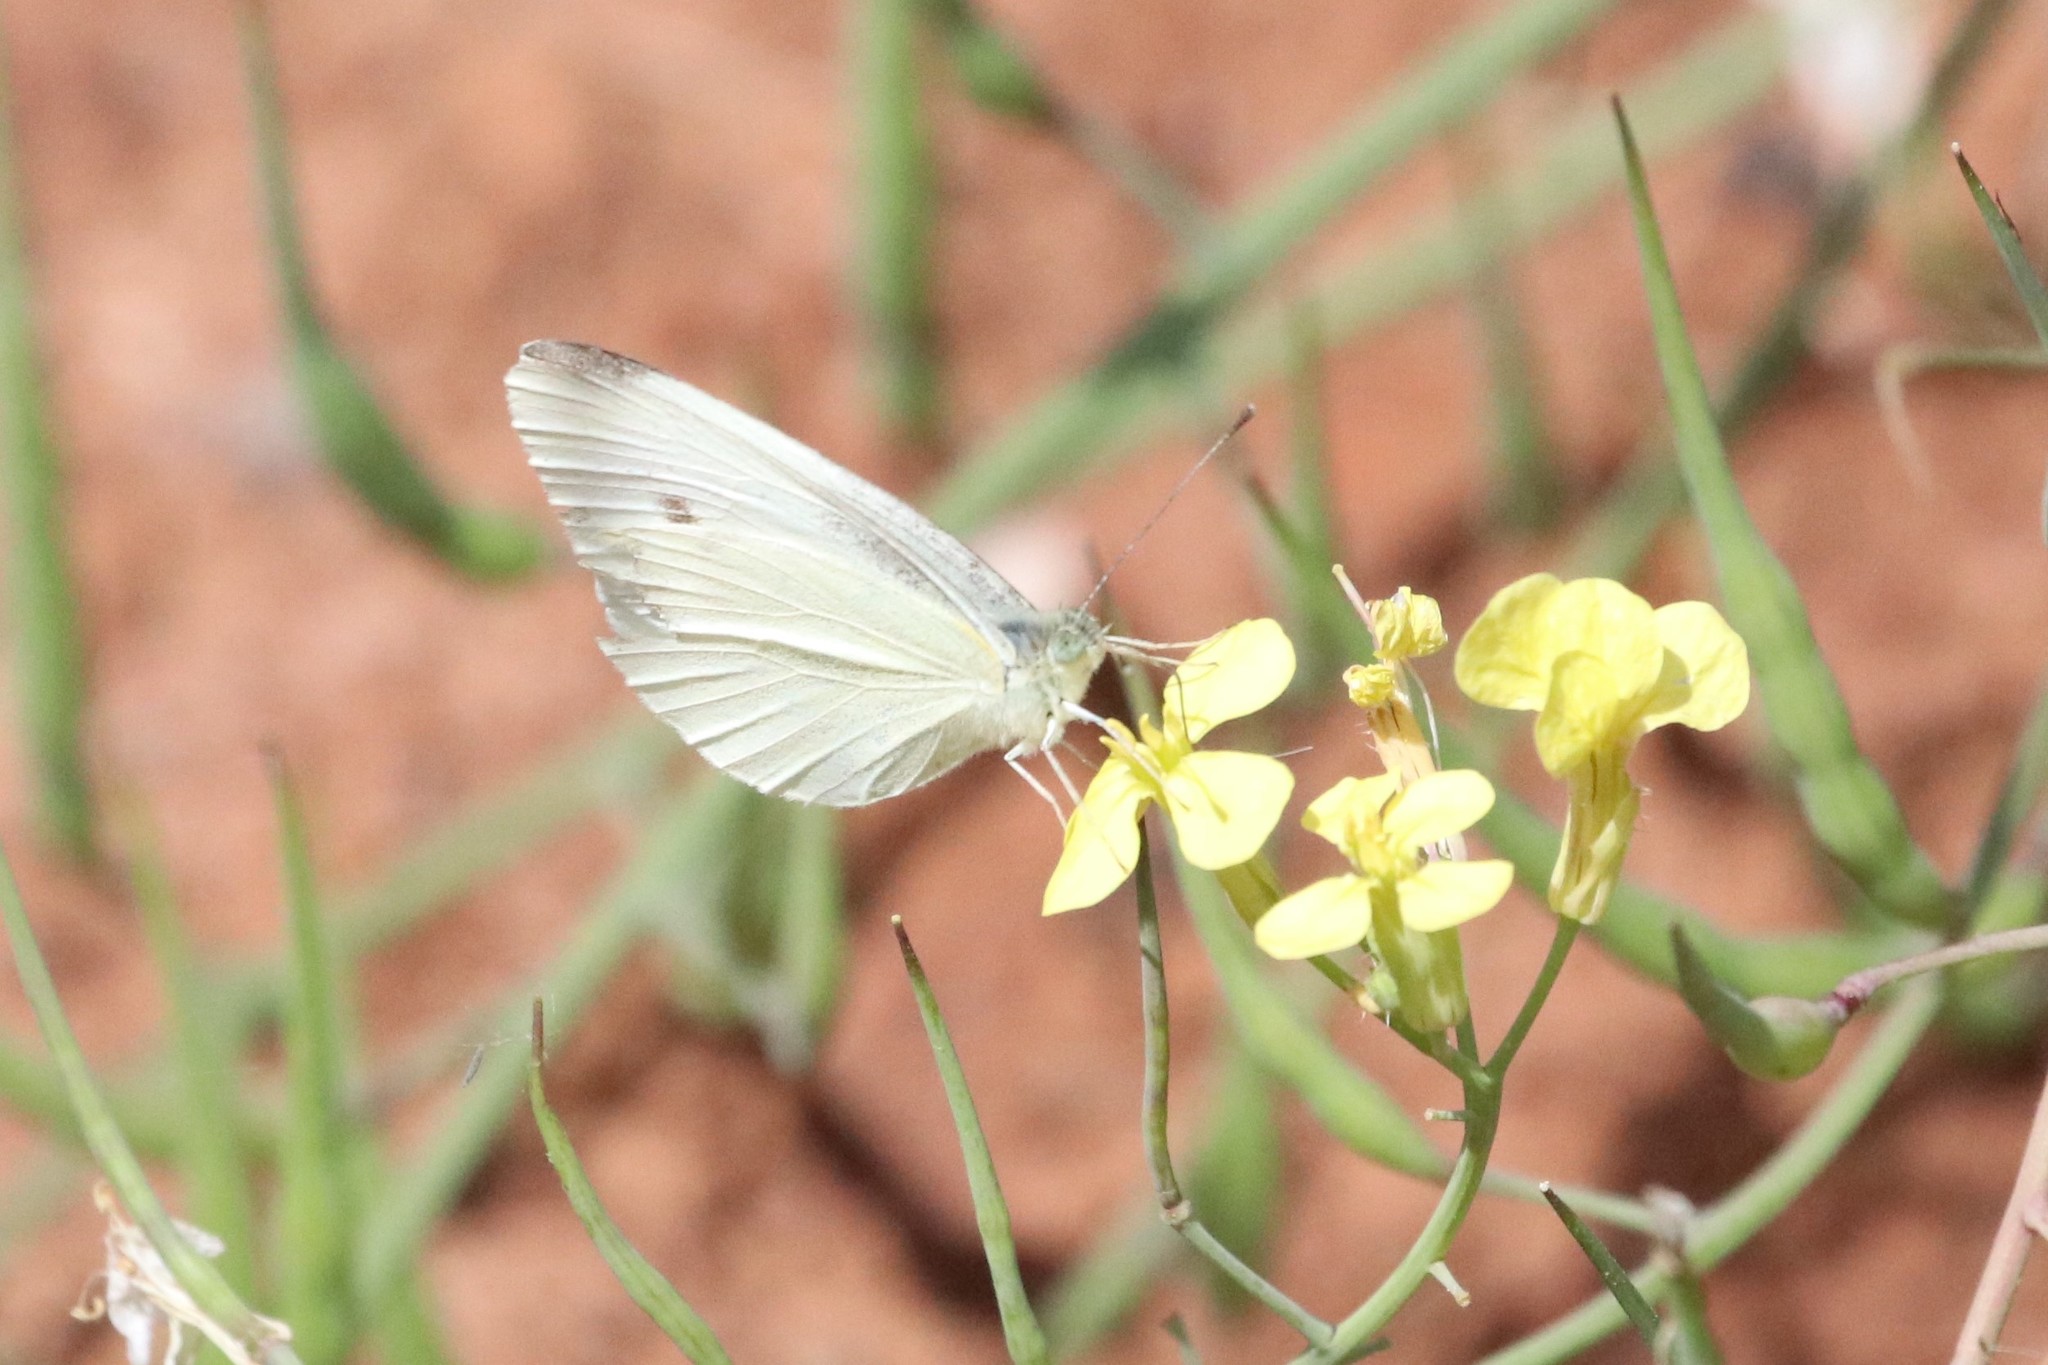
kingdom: Animalia
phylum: Arthropoda
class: Insecta
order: Lepidoptera
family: Pieridae
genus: Pieris
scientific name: Pieris rapae
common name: Small white
